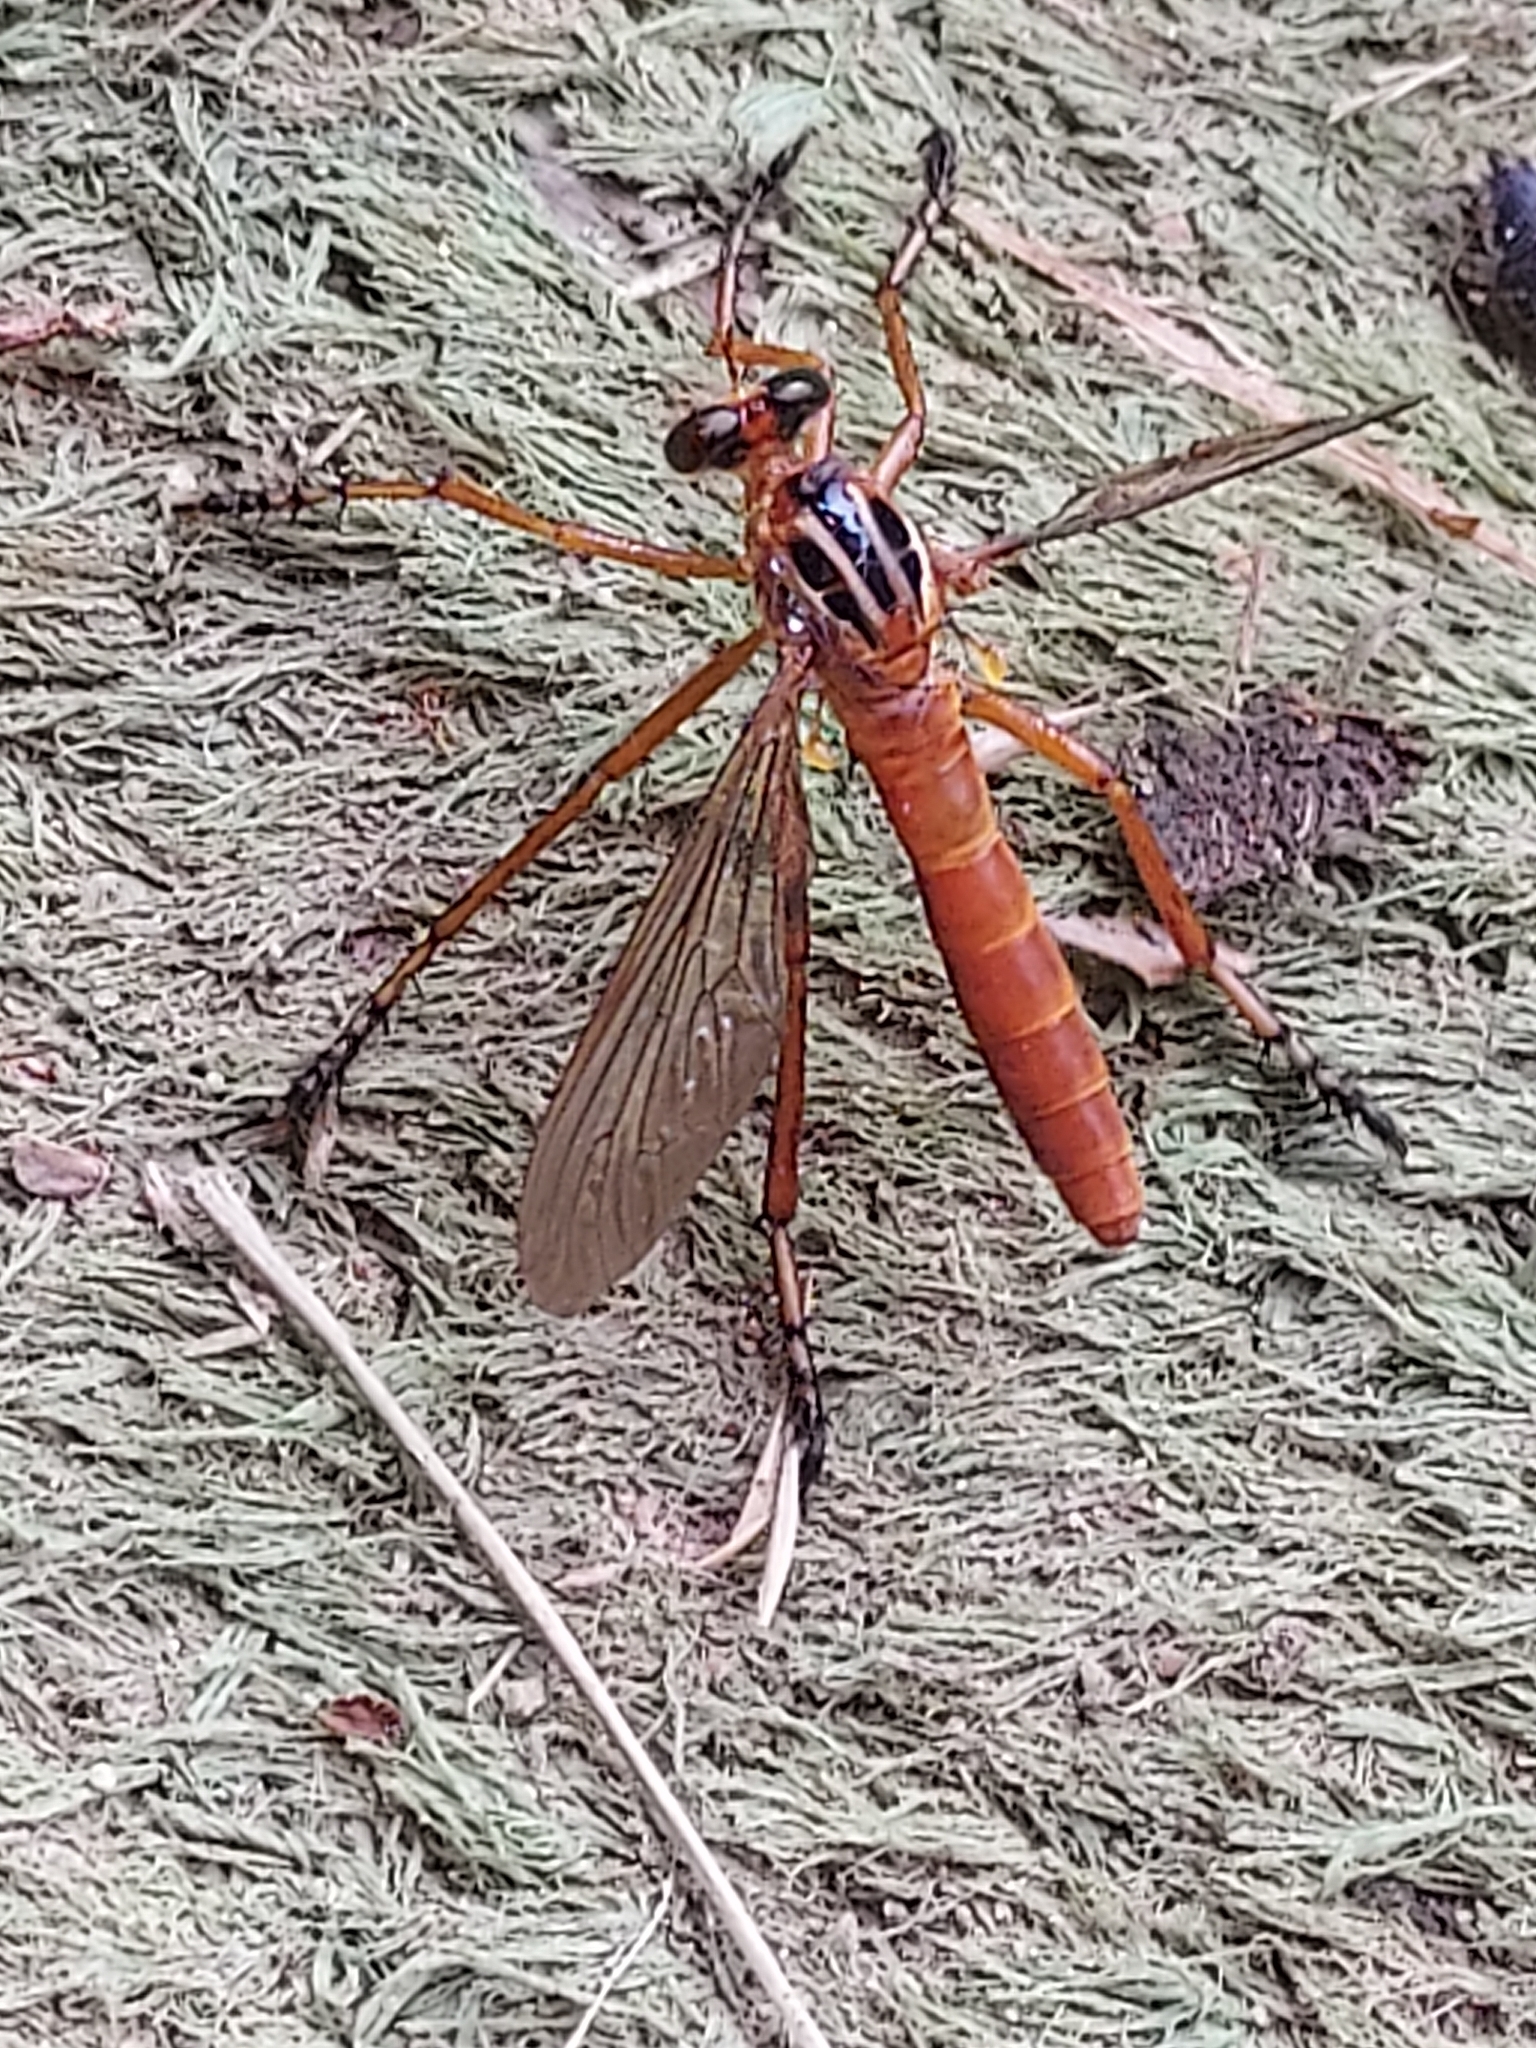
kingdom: Animalia
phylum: Arthropoda
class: Insecta
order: Diptera
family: Asilidae
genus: Diogmites
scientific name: Diogmites neoternatus
